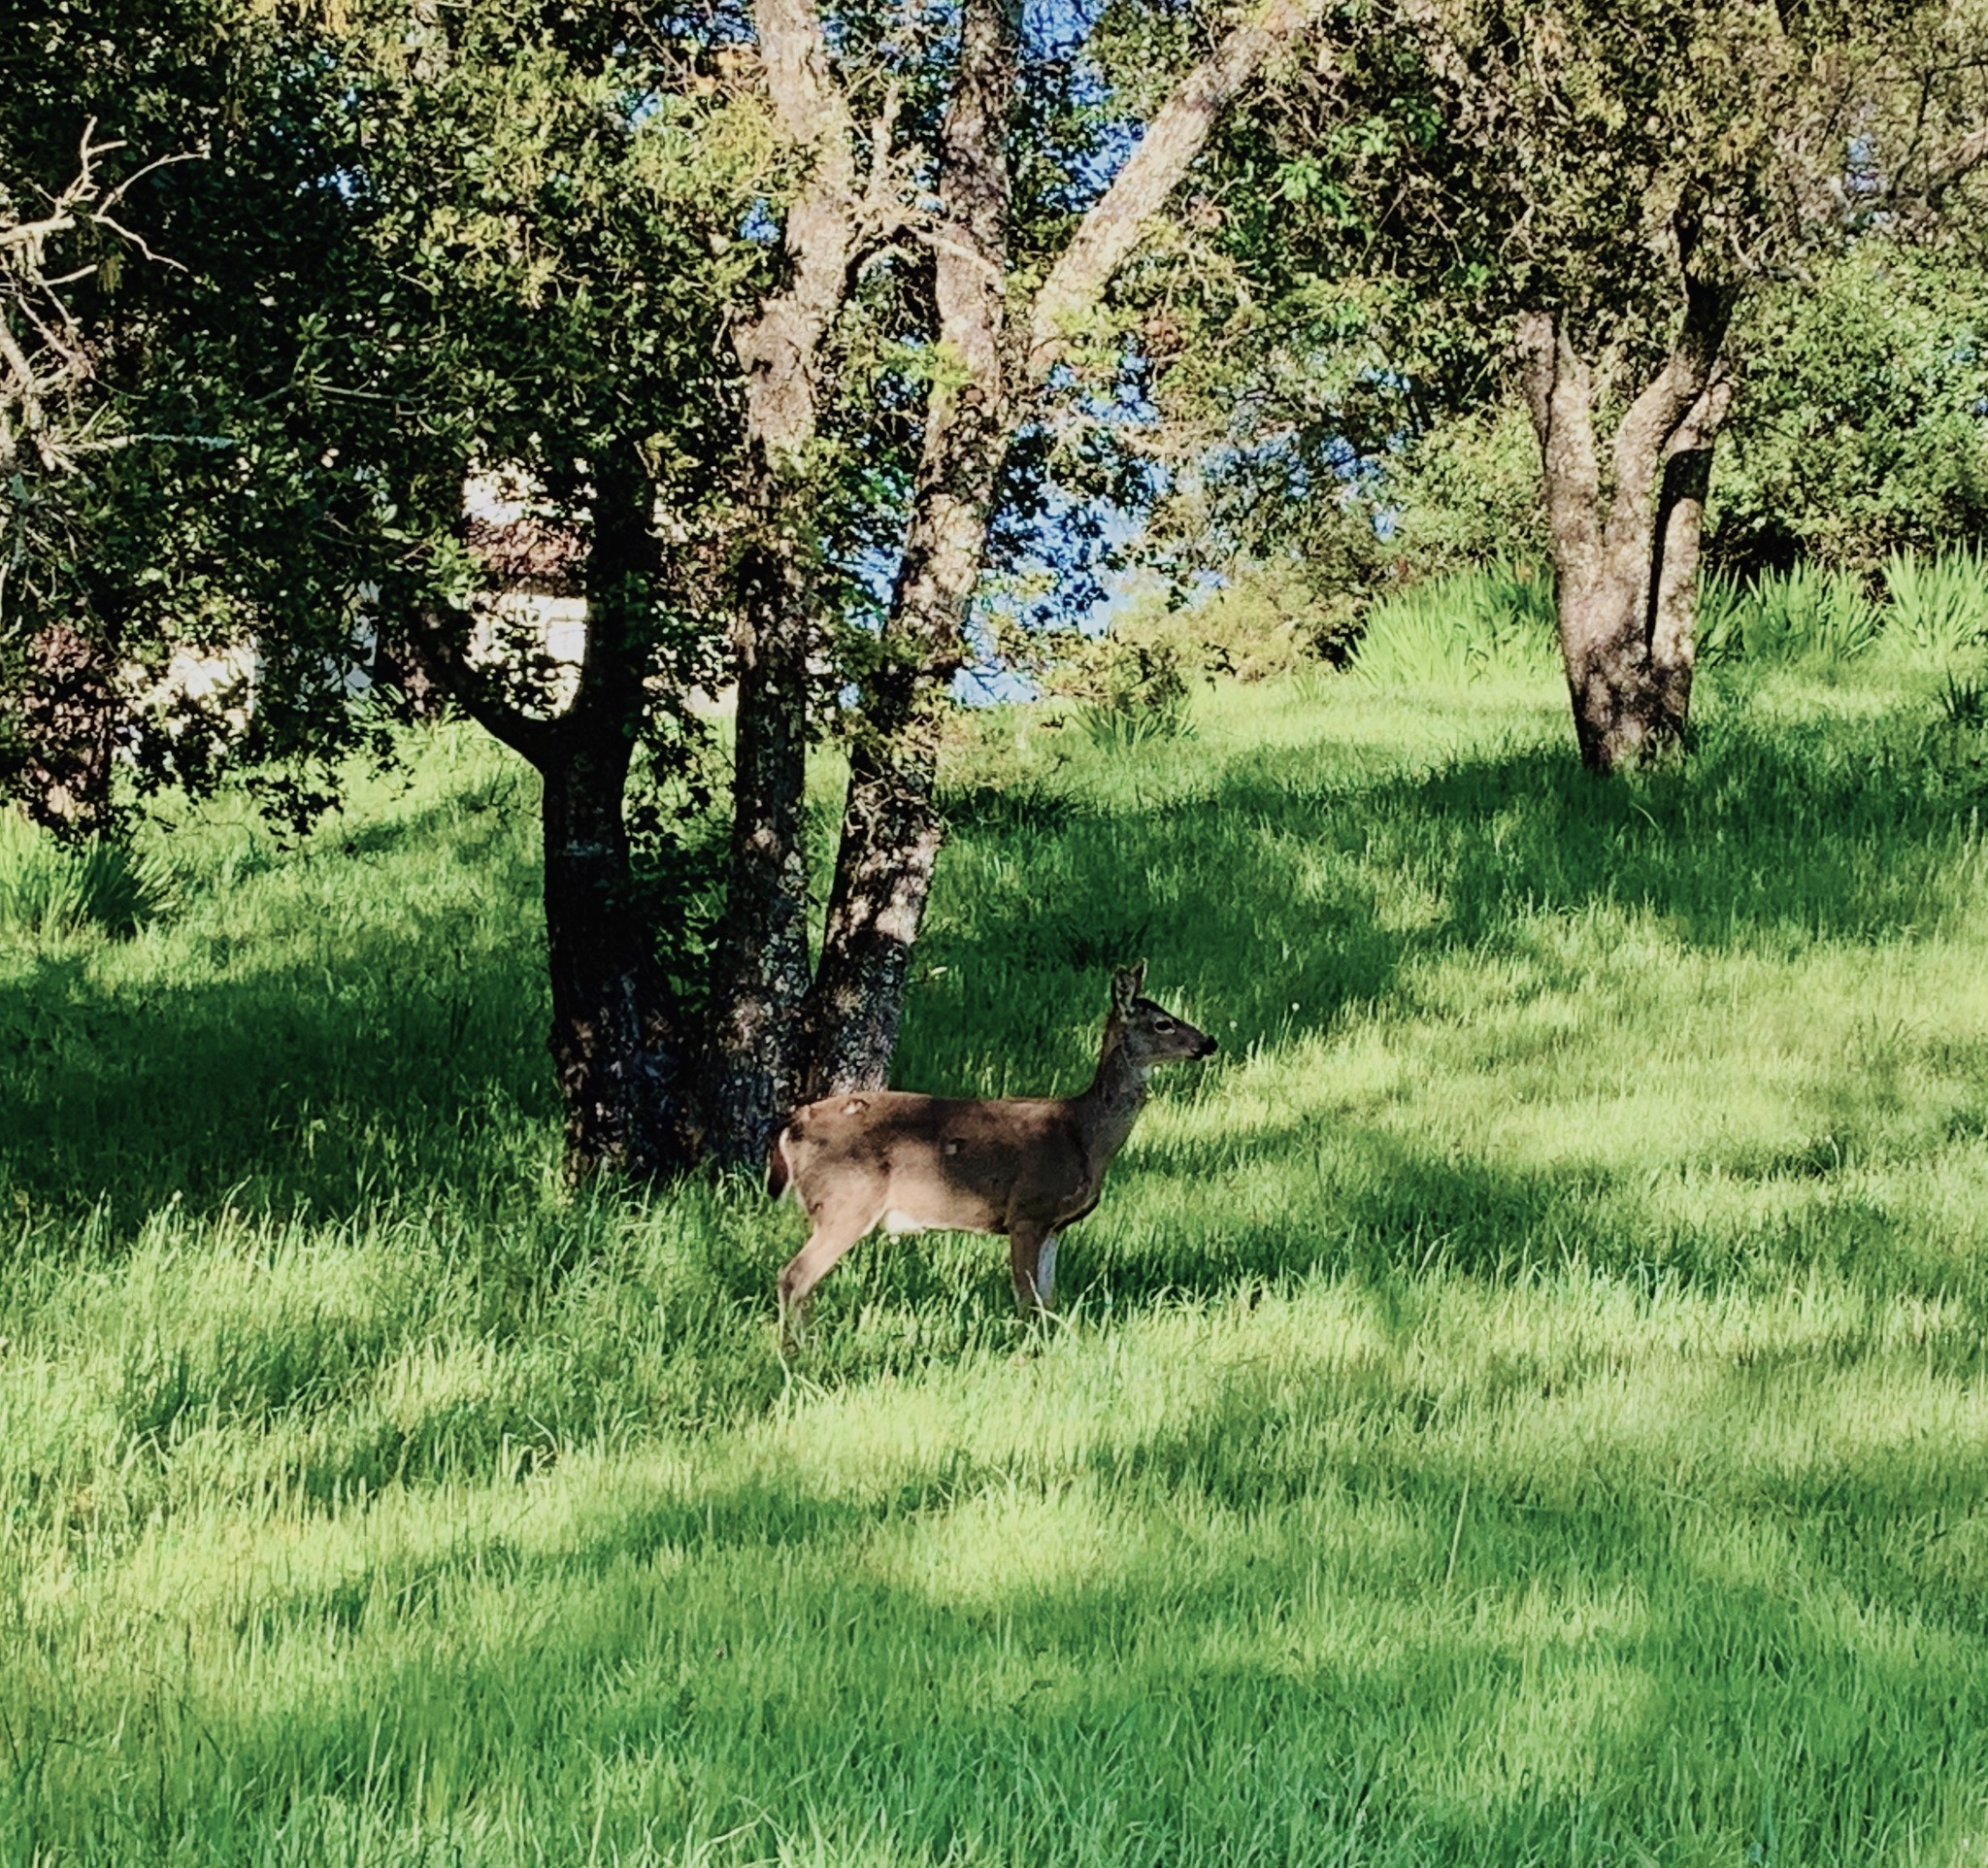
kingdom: Animalia
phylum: Chordata
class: Mammalia
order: Artiodactyla
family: Cervidae
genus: Odocoileus
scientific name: Odocoileus hemionus
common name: Mule deer
